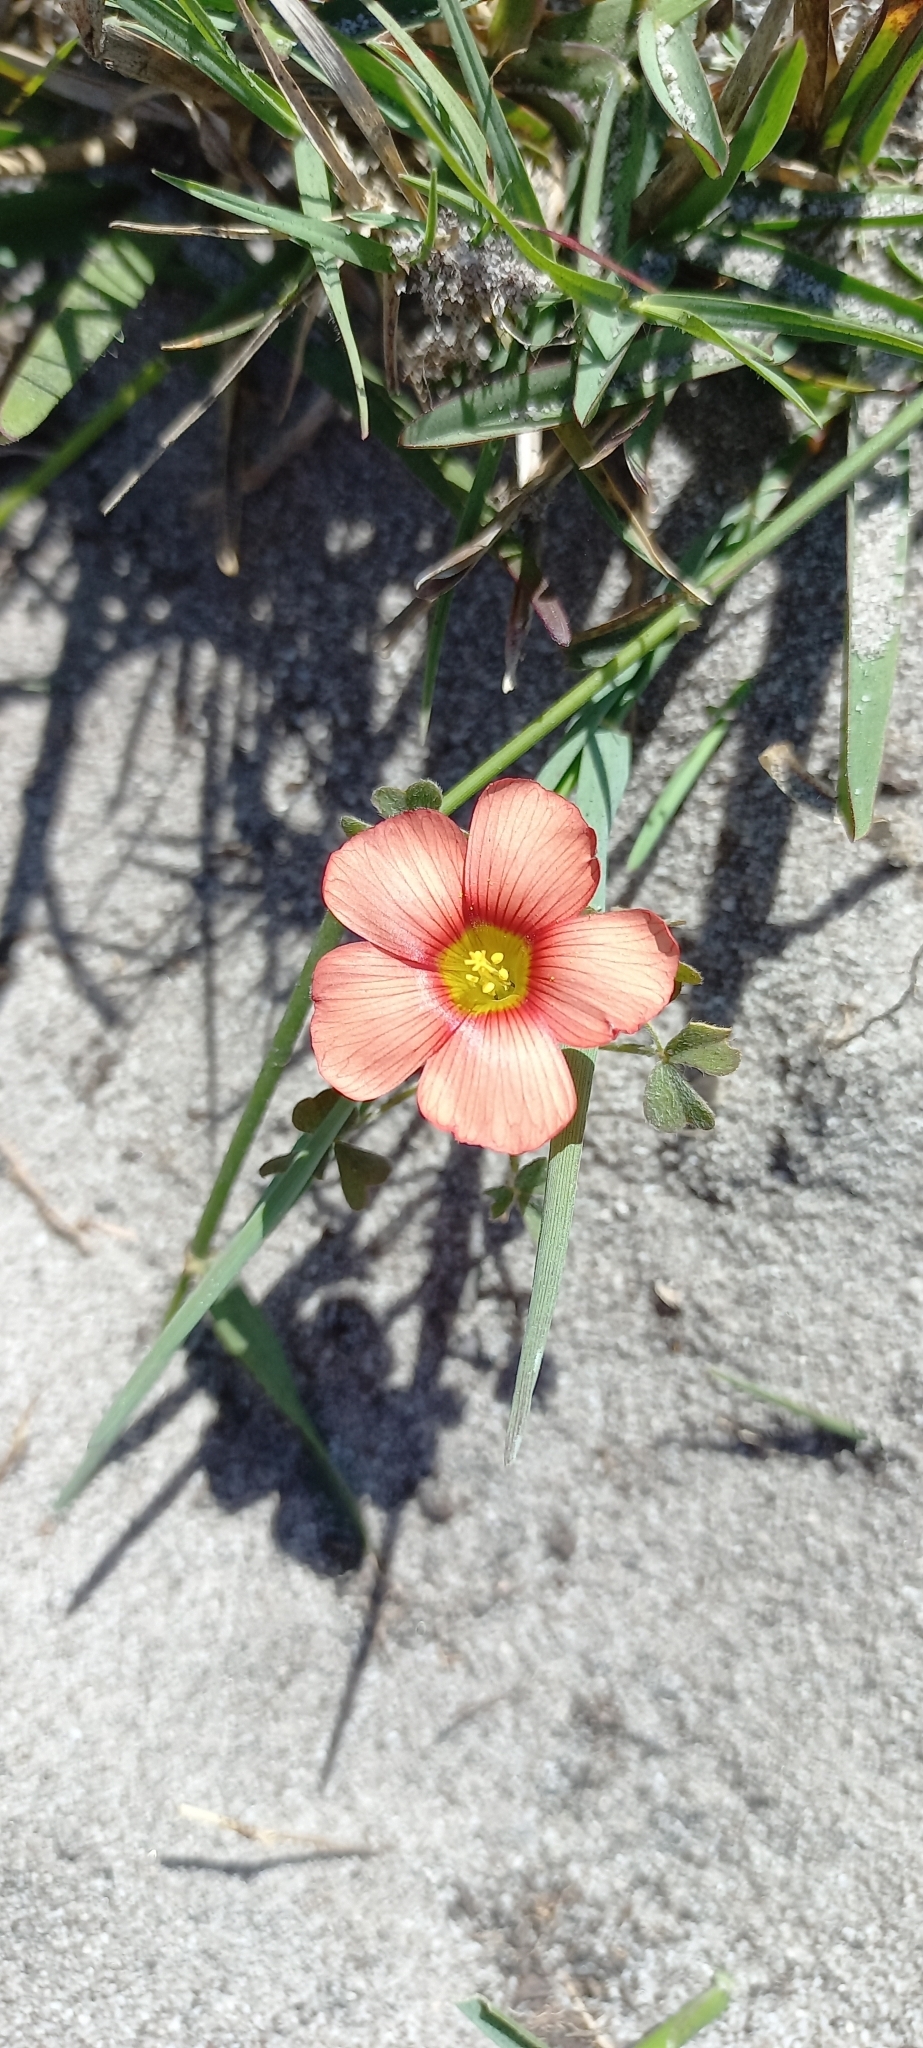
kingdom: Plantae
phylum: Tracheophyta
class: Magnoliopsida
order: Oxalidales
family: Oxalidaceae
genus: Oxalis
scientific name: Oxalis obtusa
